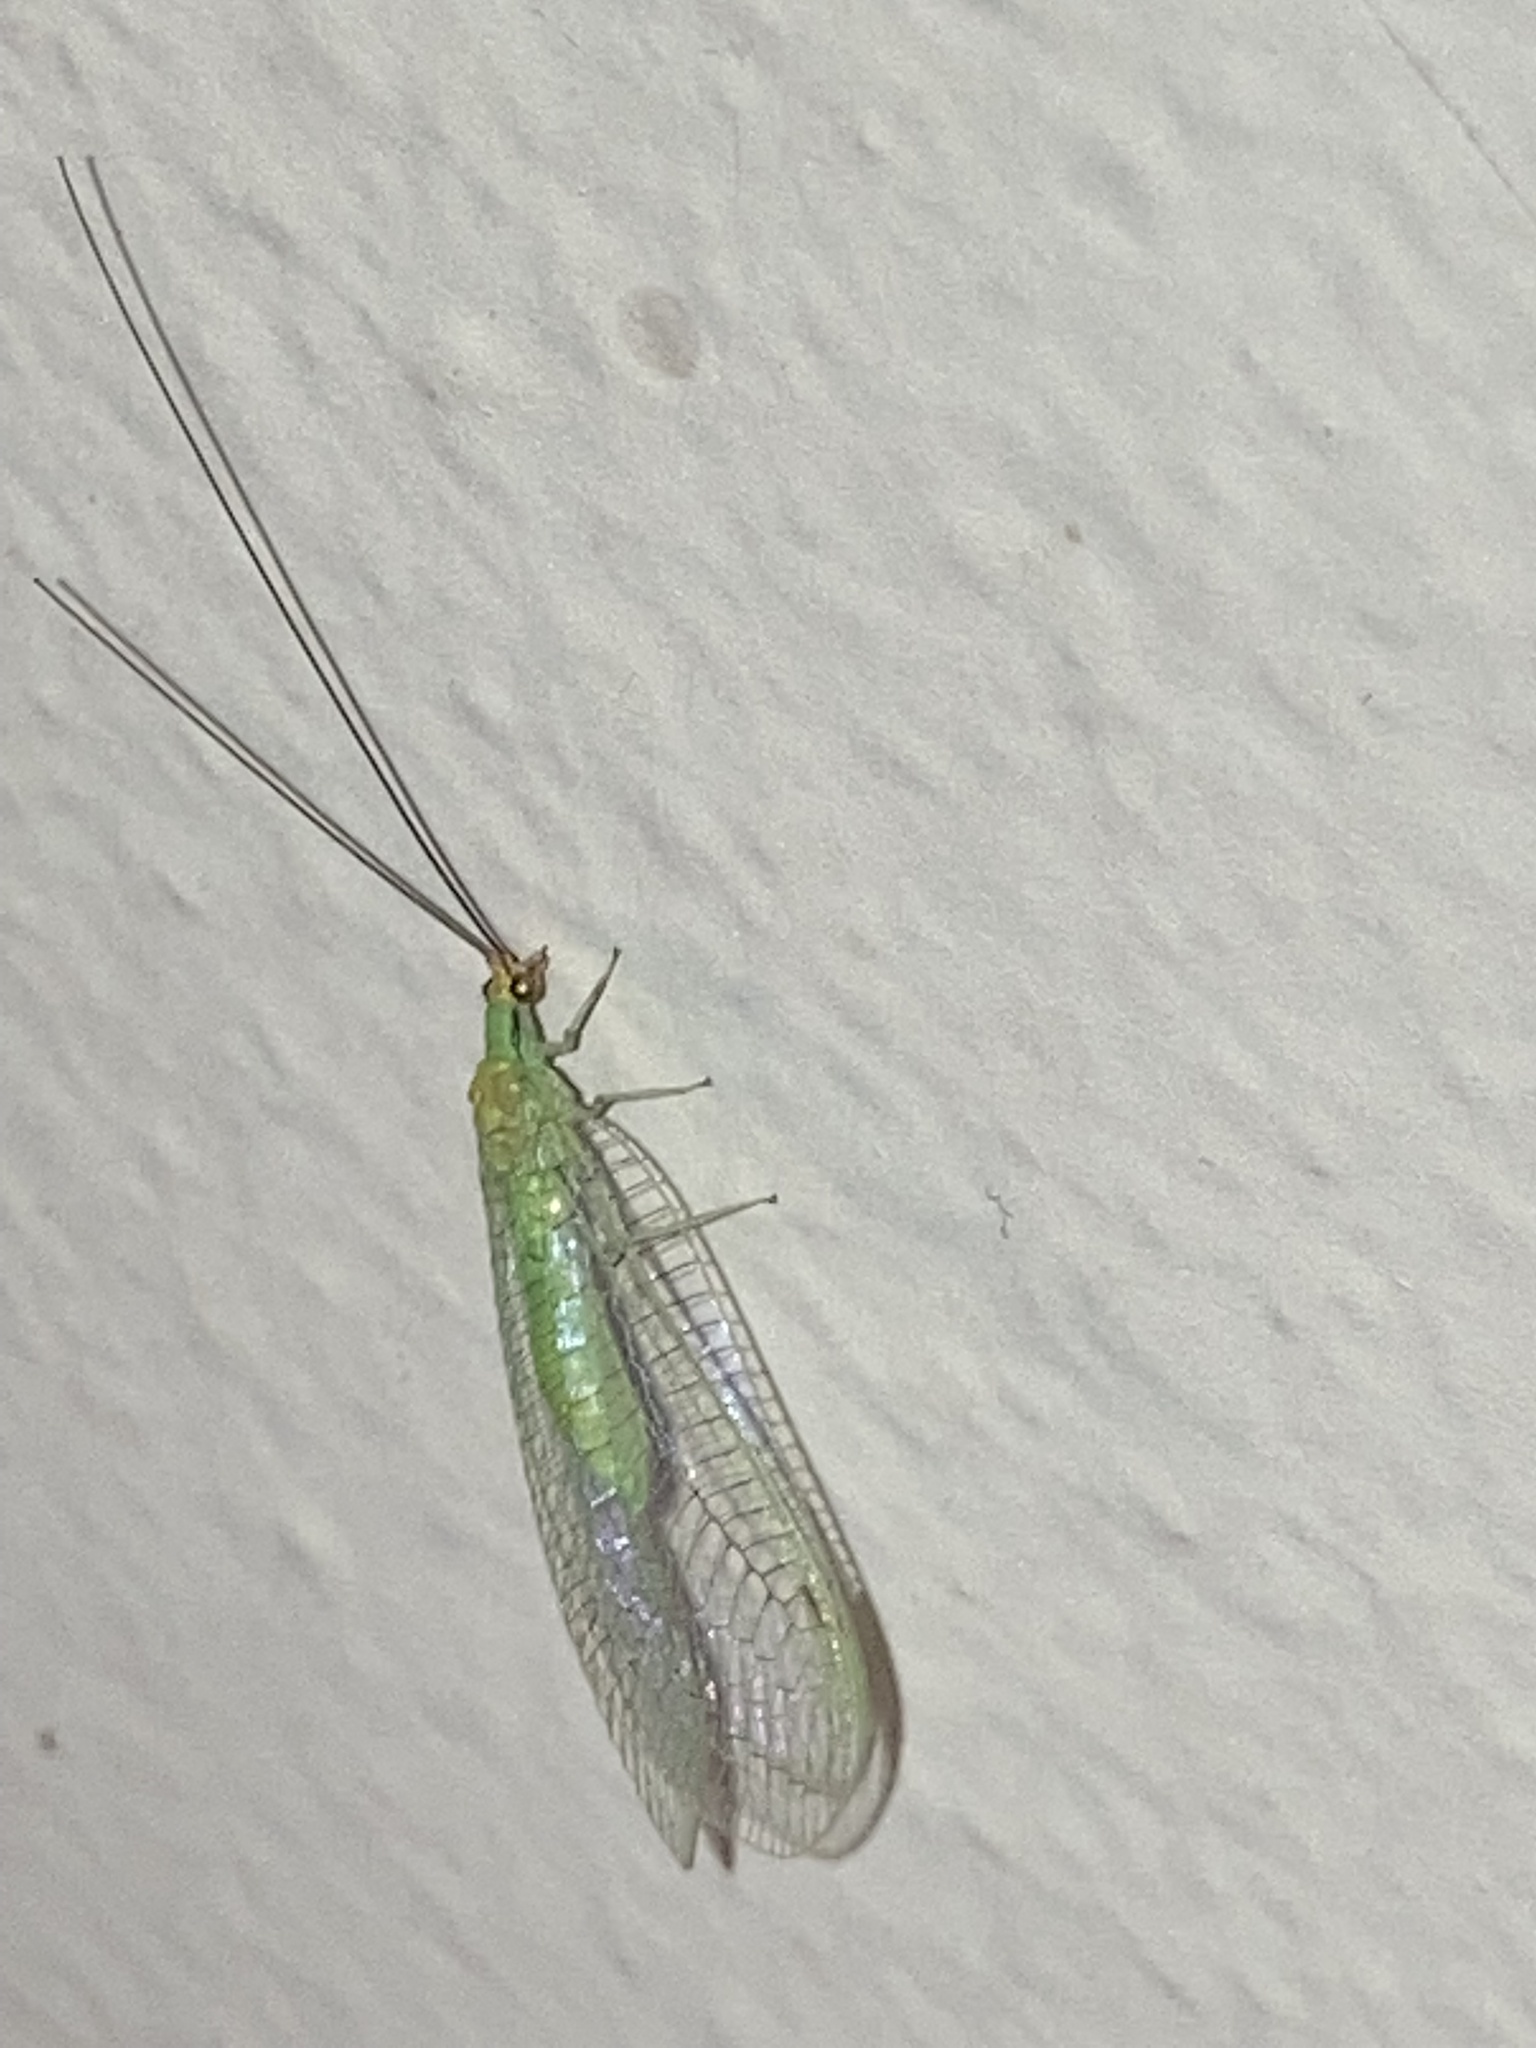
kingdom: Animalia
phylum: Arthropoda
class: Insecta
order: Neuroptera
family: Chrysopidae
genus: Leucochrysa
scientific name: Leucochrysa pavida
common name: Lichen-carrying green lacewing
